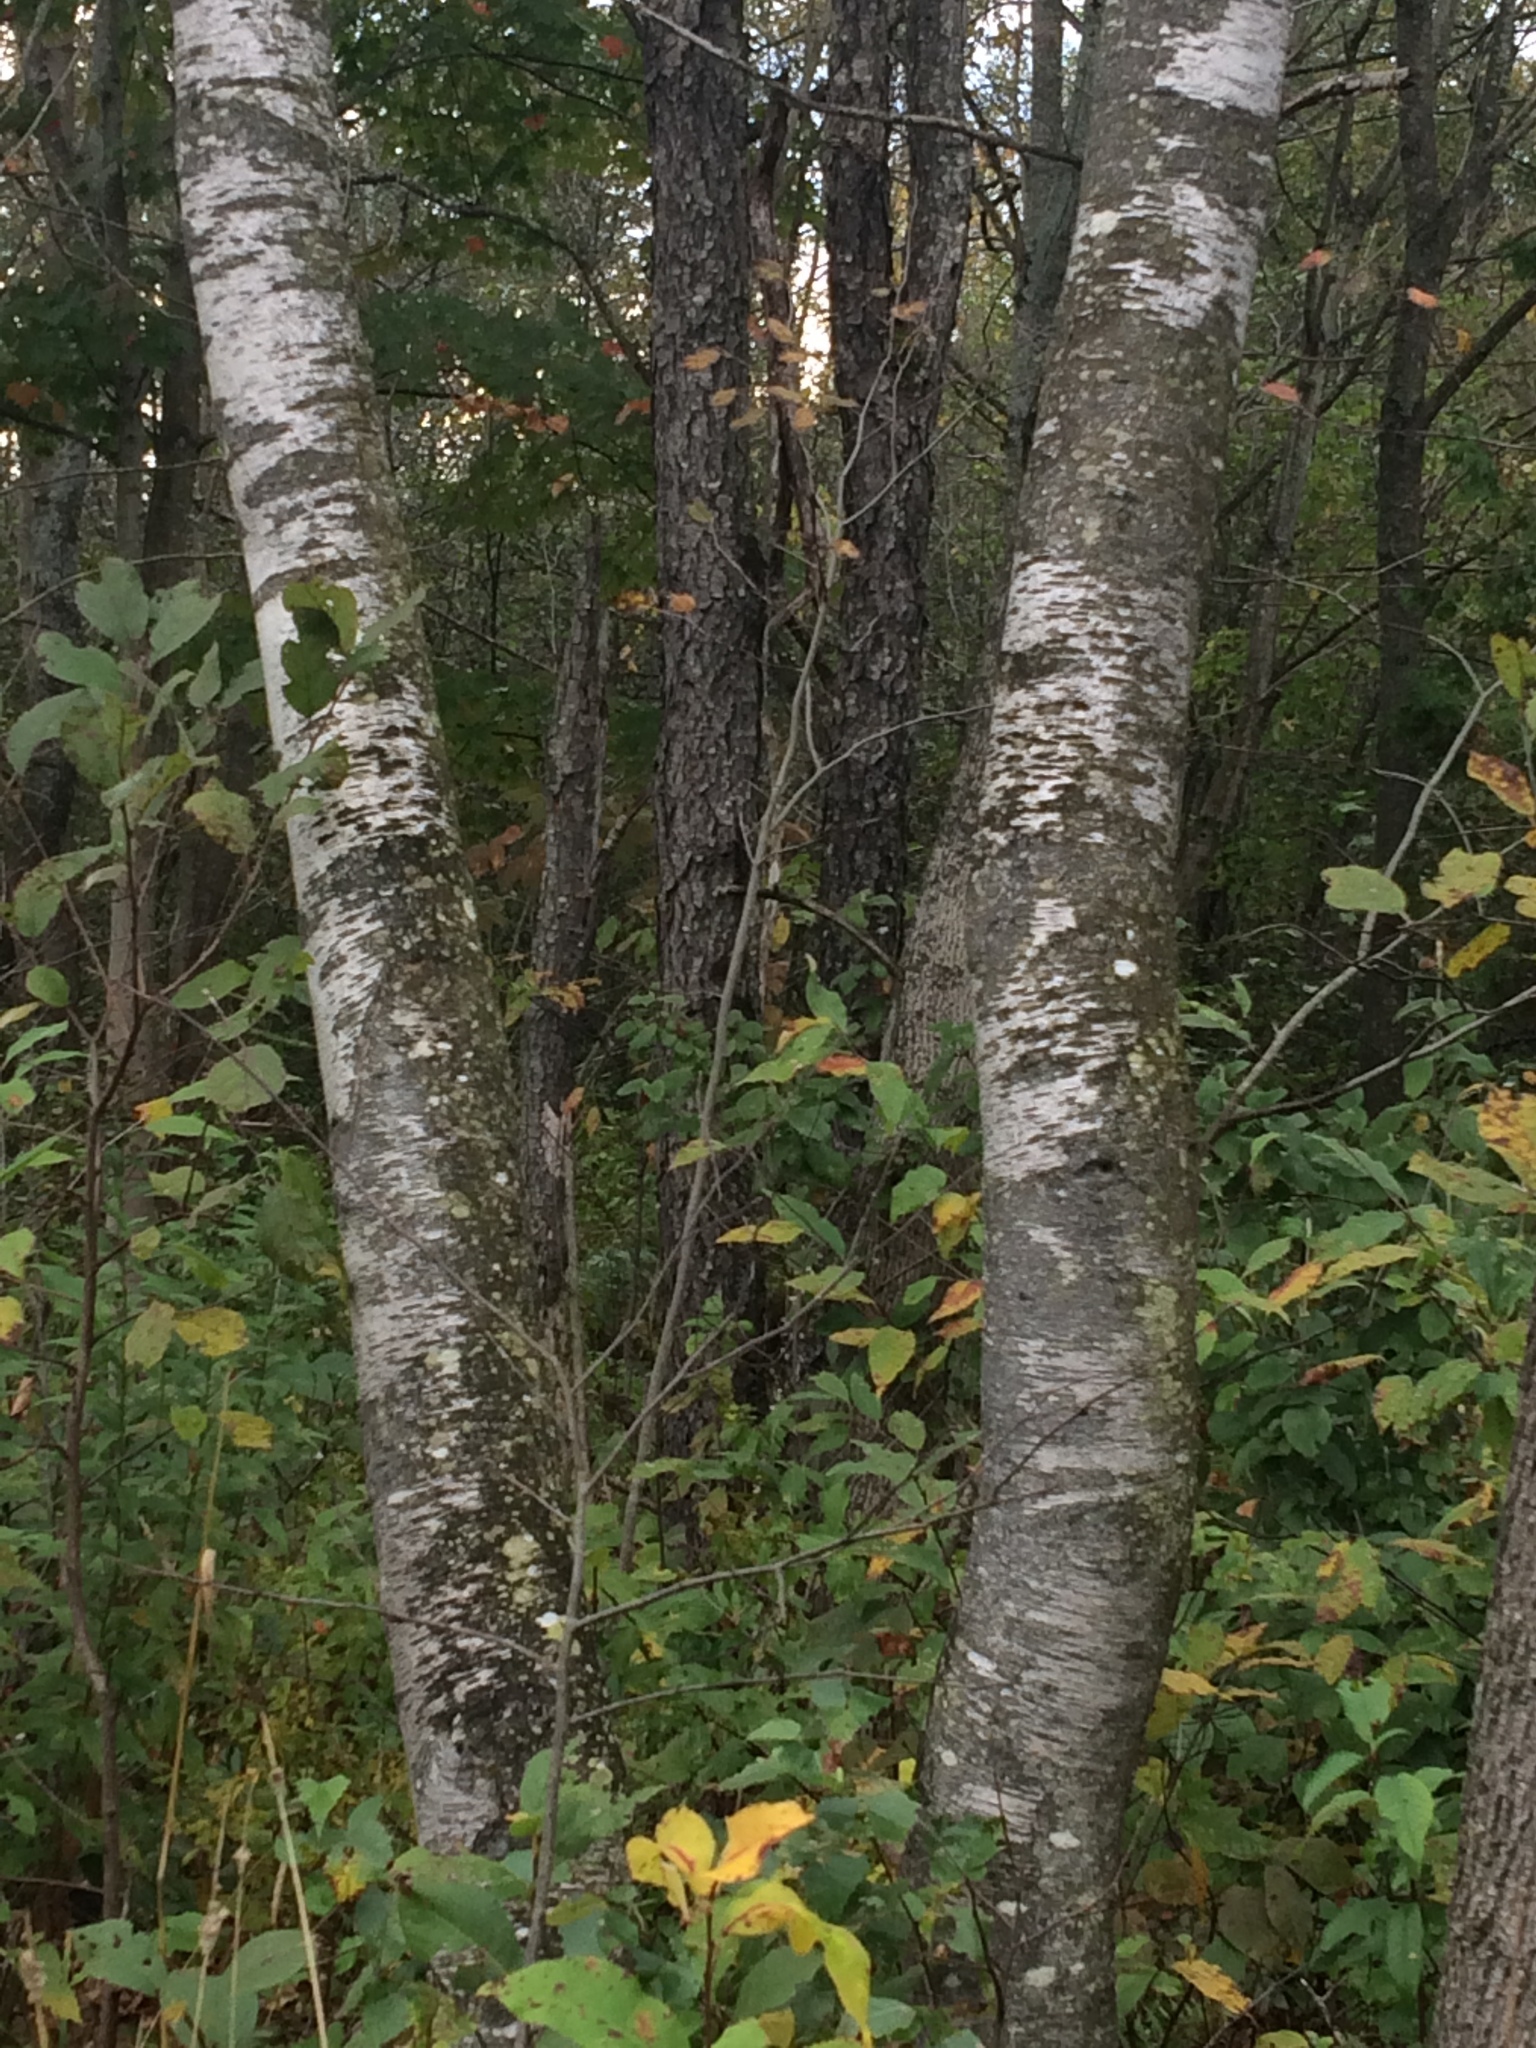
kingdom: Plantae
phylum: Tracheophyta
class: Magnoliopsida
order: Fagales
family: Betulaceae
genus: Betula
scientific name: Betula populifolia
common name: Fire birch
